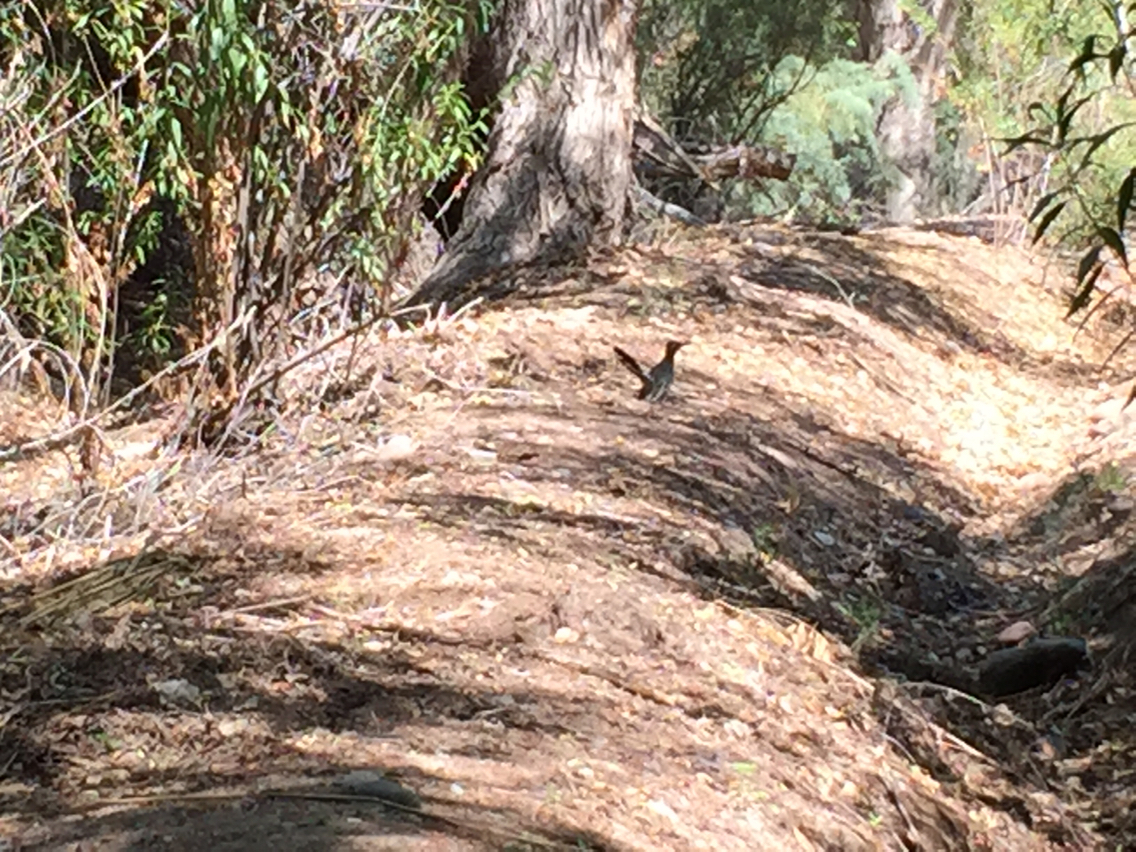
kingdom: Animalia
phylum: Chordata
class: Aves
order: Cuculiformes
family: Cuculidae
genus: Geococcyx
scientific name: Geococcyx californianus
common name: Greater roadrunner
